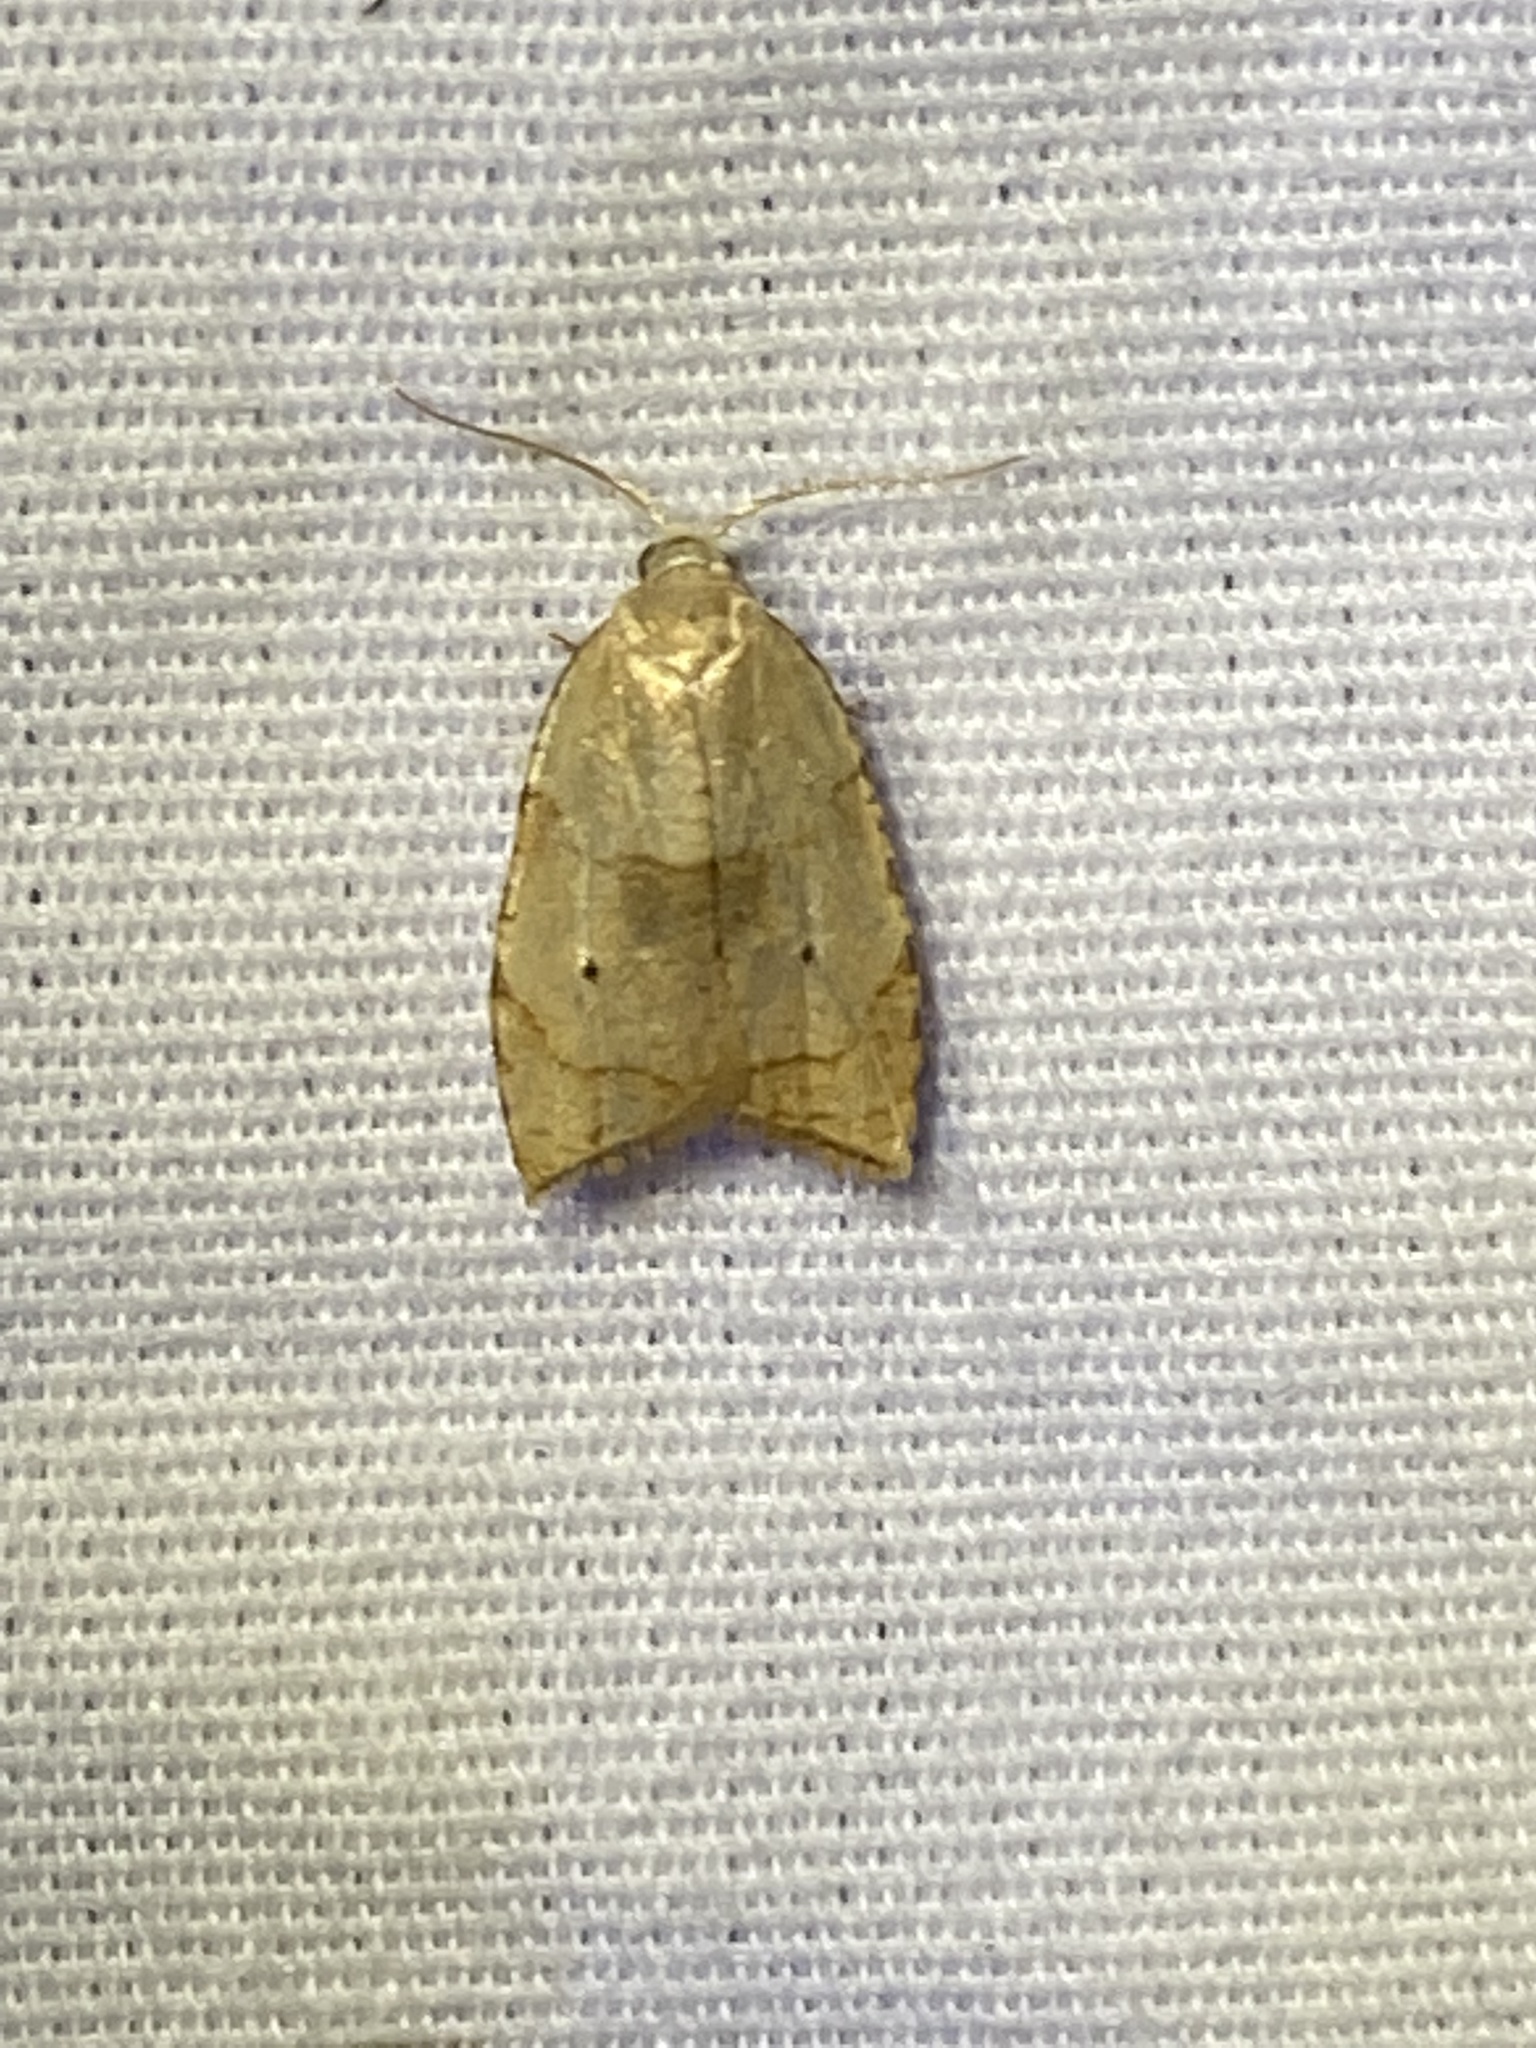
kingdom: Animalia
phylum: Arthropoda
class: Insecta
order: Lepidoptera
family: Tortricidae
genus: Coelostathma
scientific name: Coelostathma discopunctana
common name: Batman moth
